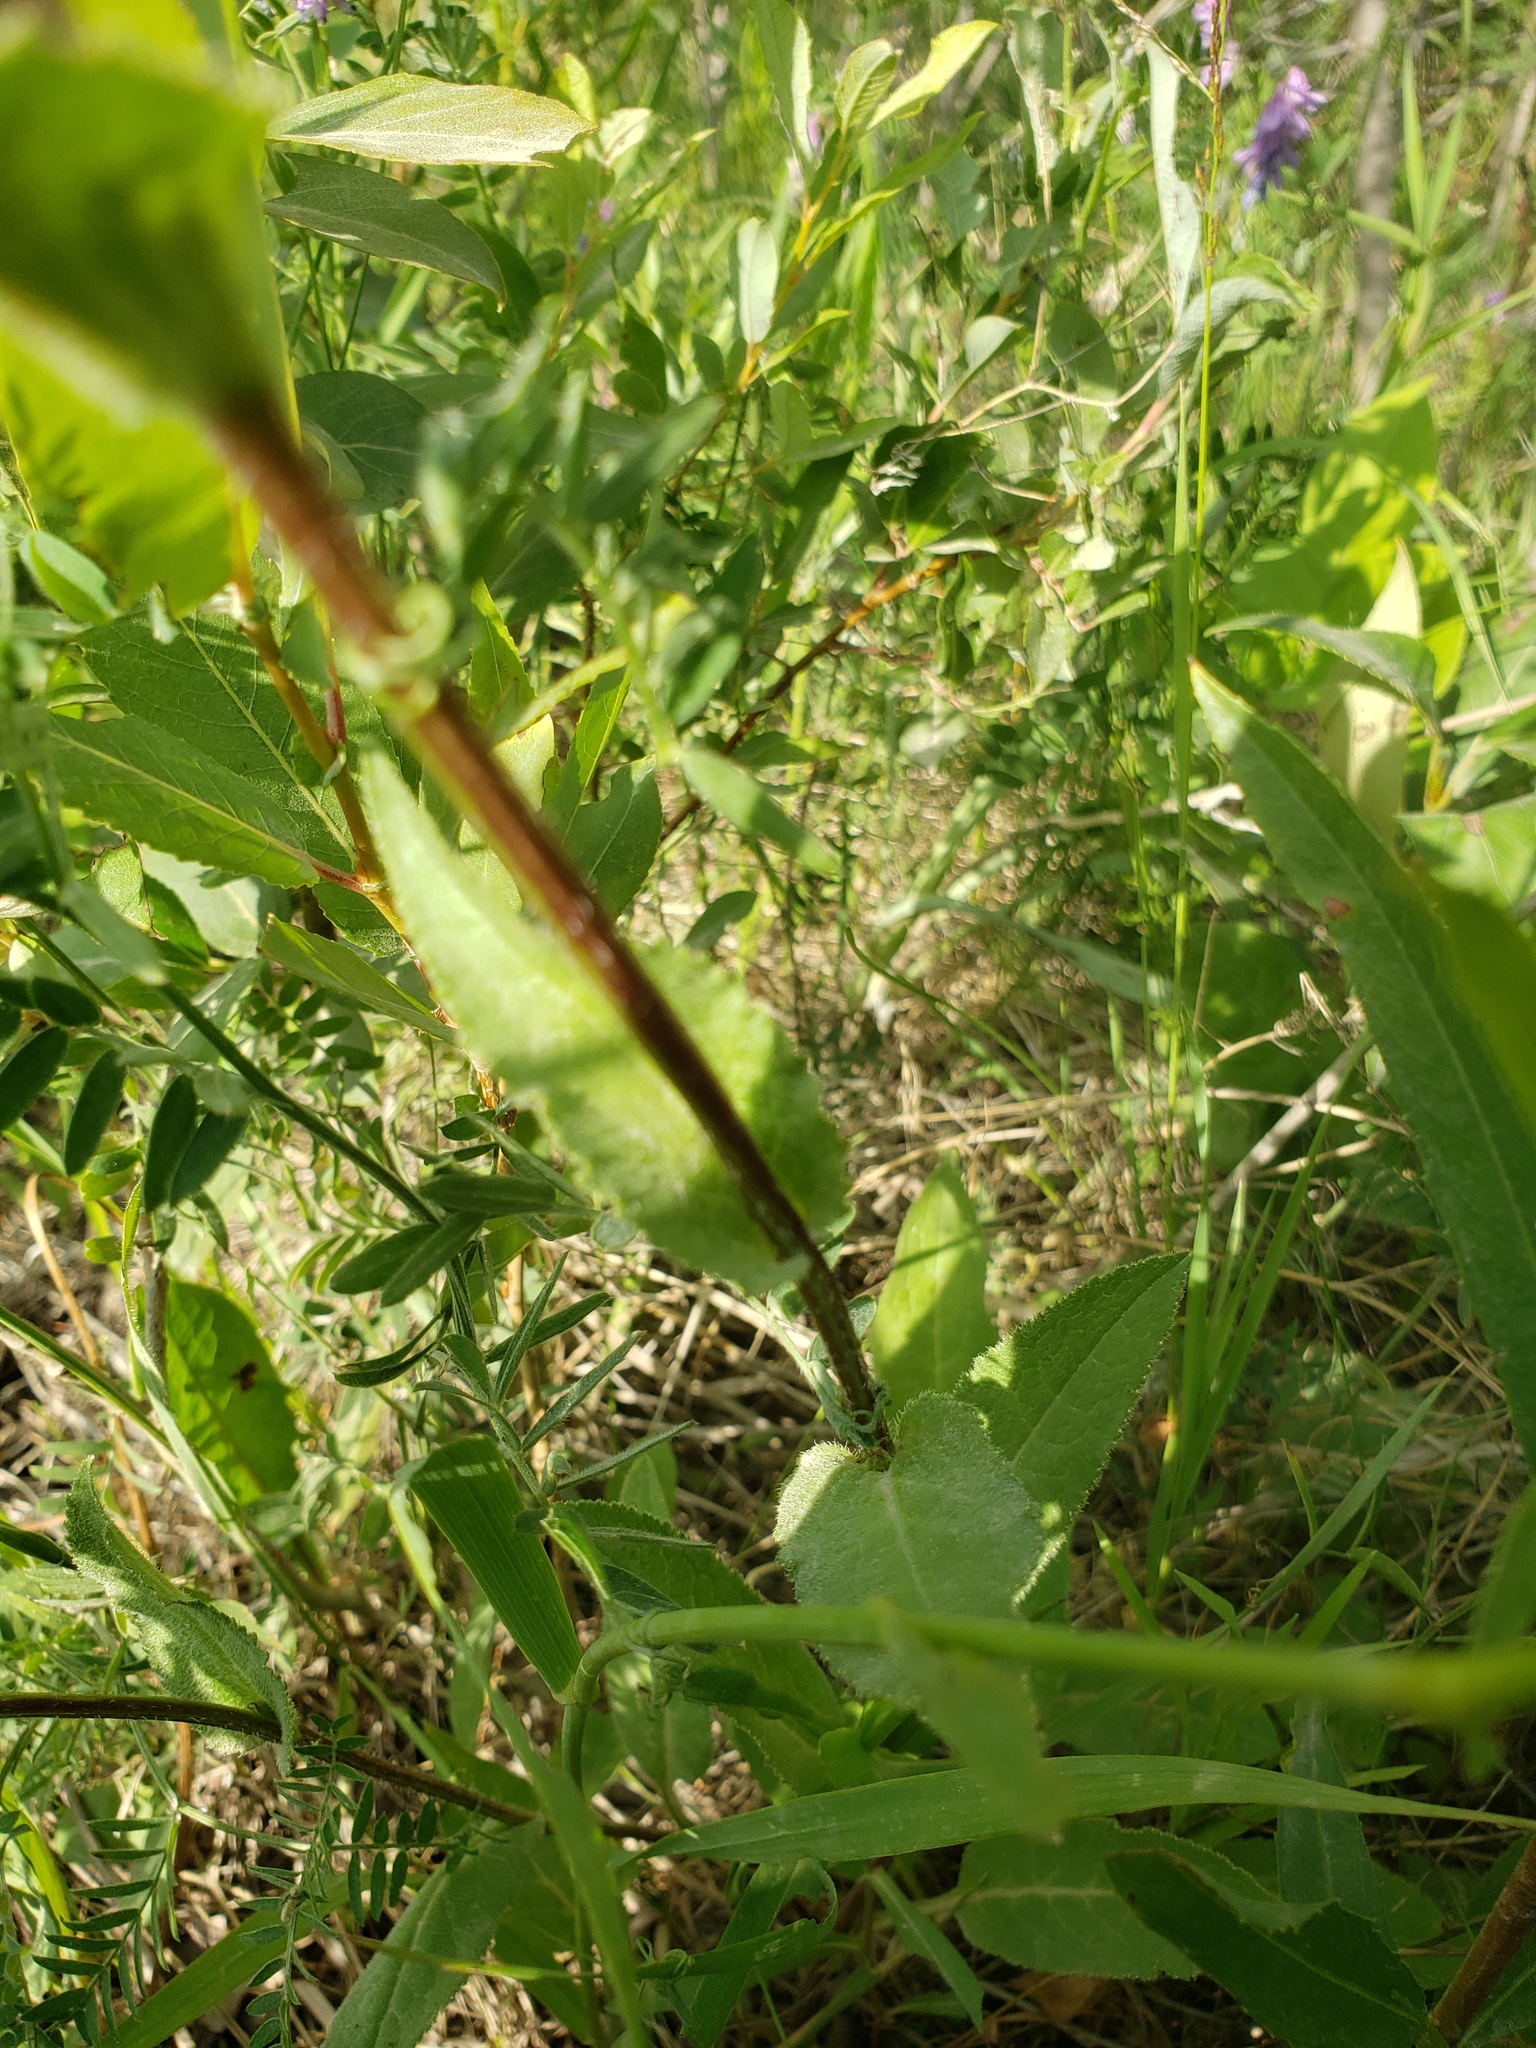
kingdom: Plantae
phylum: Tracheophyta
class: Magnoliopsida
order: Asterales
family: Campanulaceae
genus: Campanula
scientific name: Campanula glomerata
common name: Clustered bellflower
